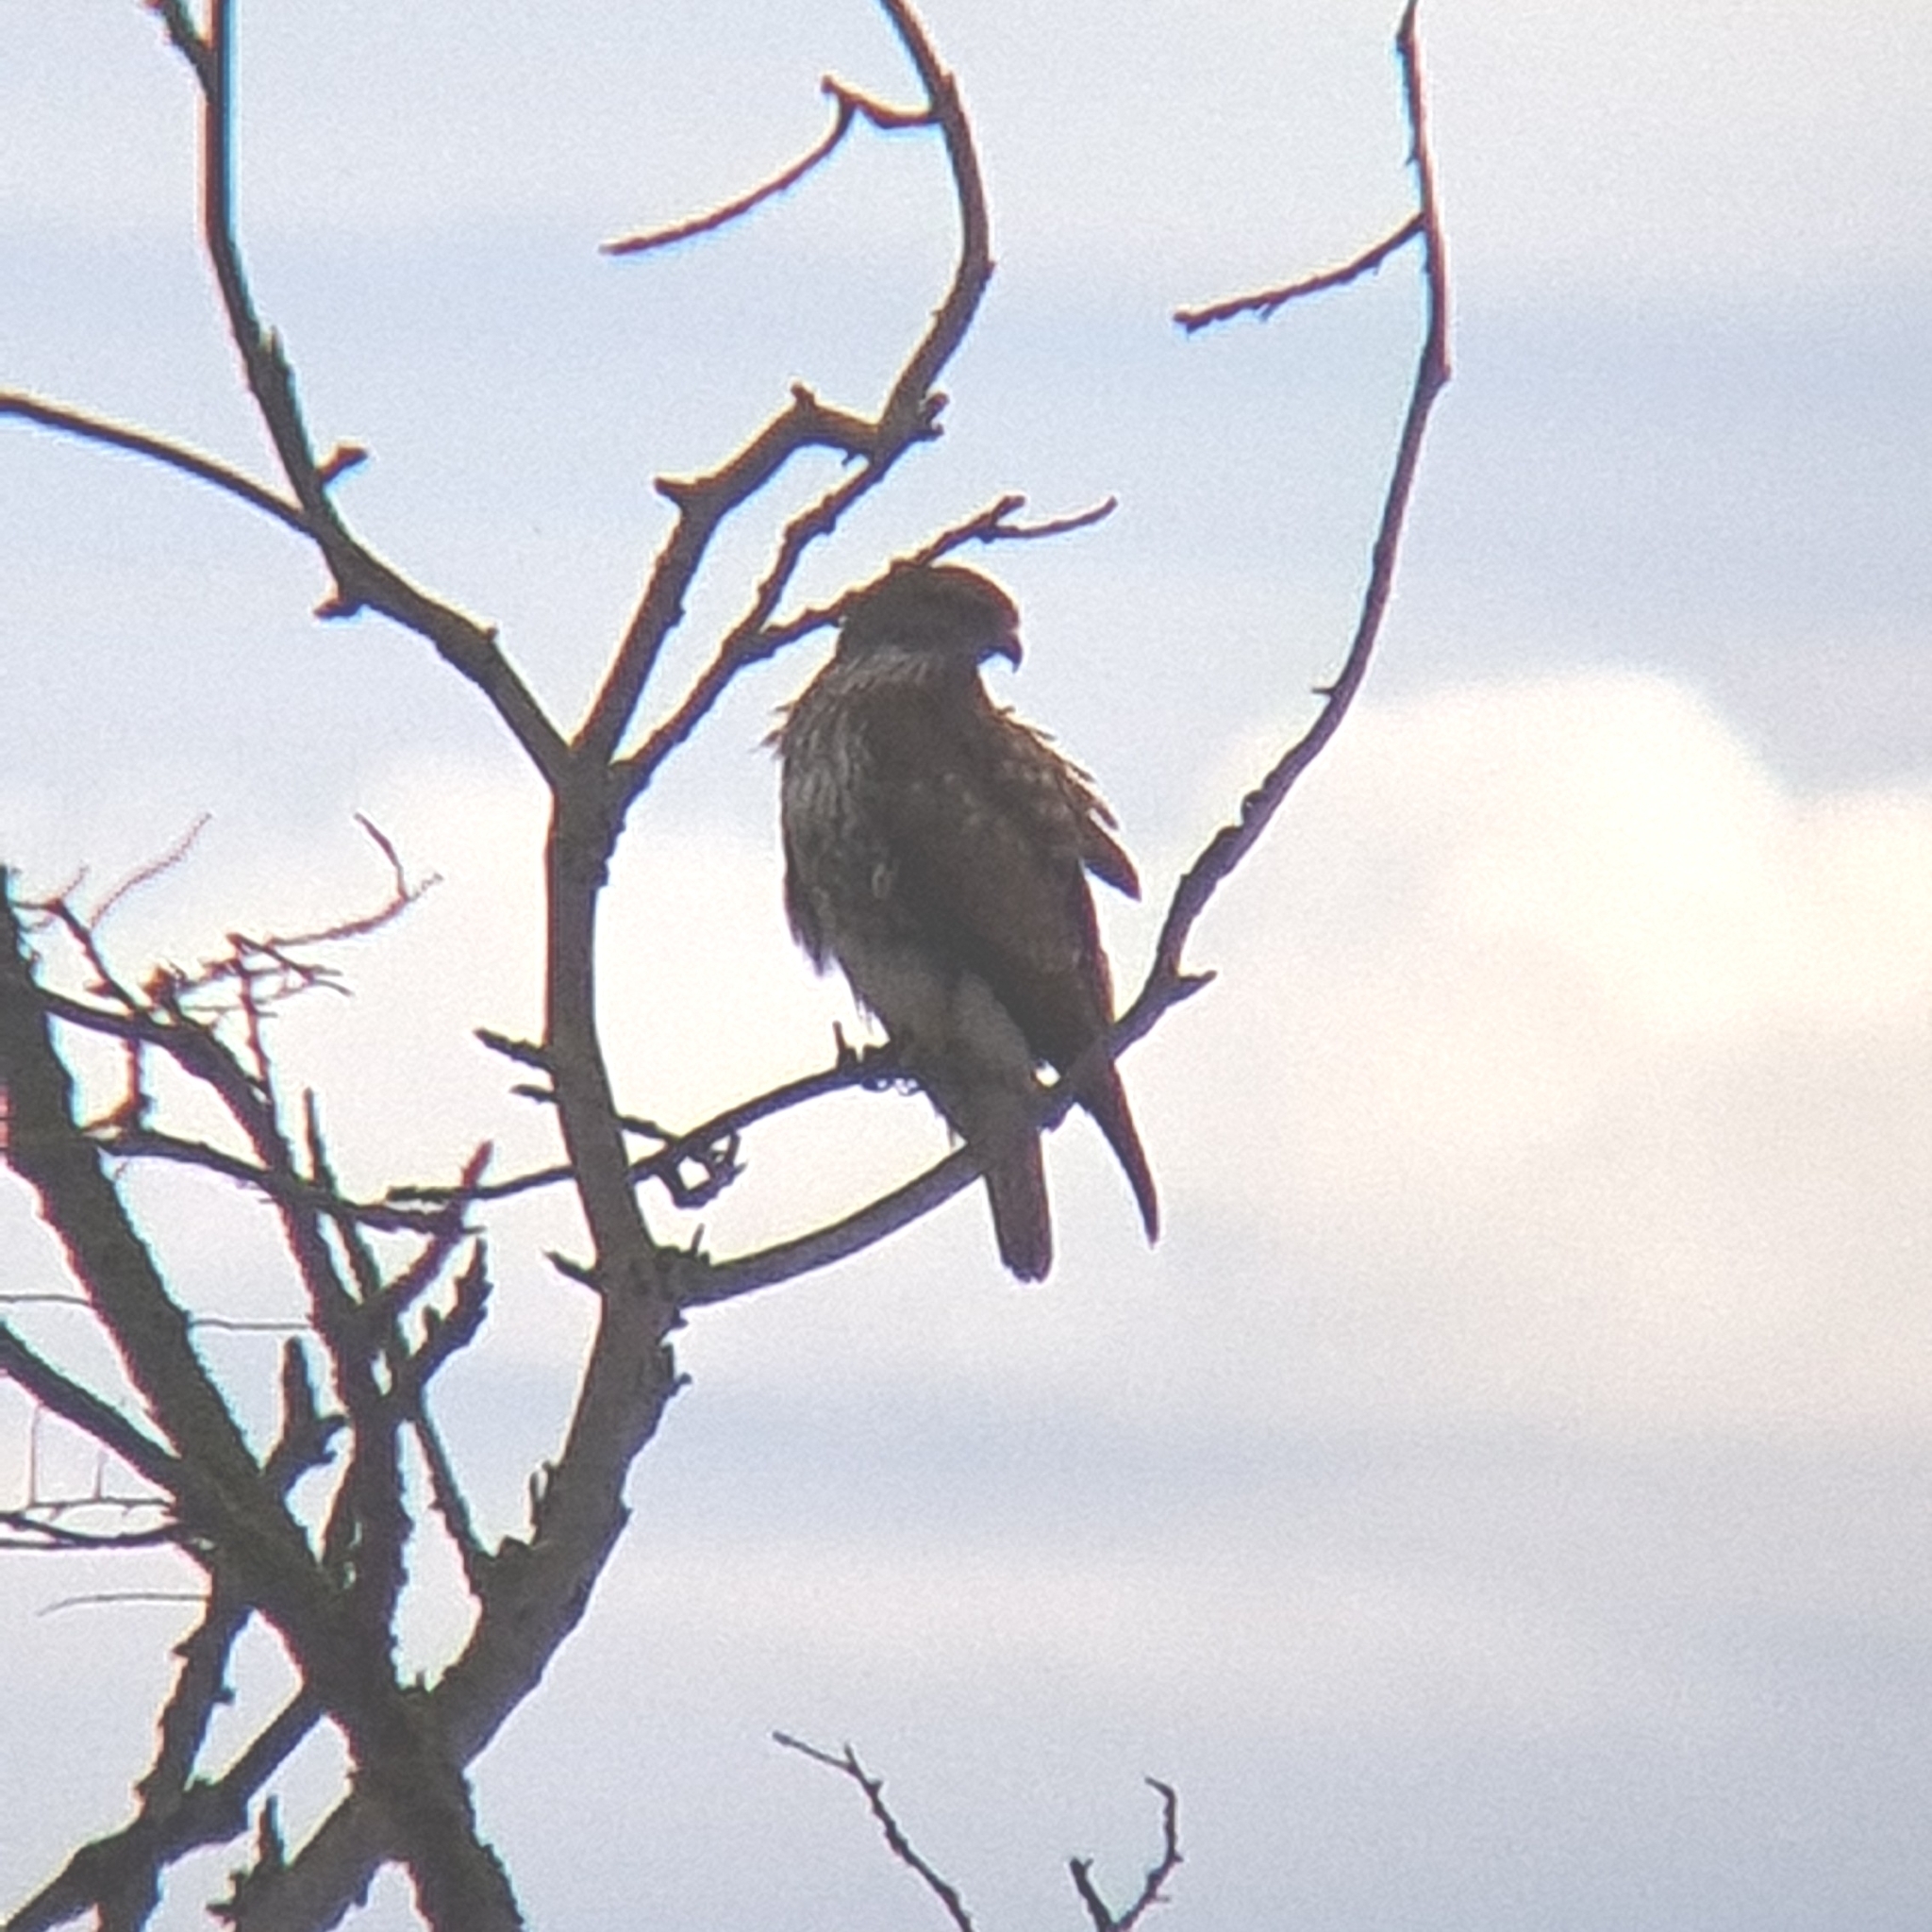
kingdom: Animalia
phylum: Chordata
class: Aves
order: Accipitriformes
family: Accipitridae
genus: Buteo
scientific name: Buteo buteo
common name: Common buzzard
